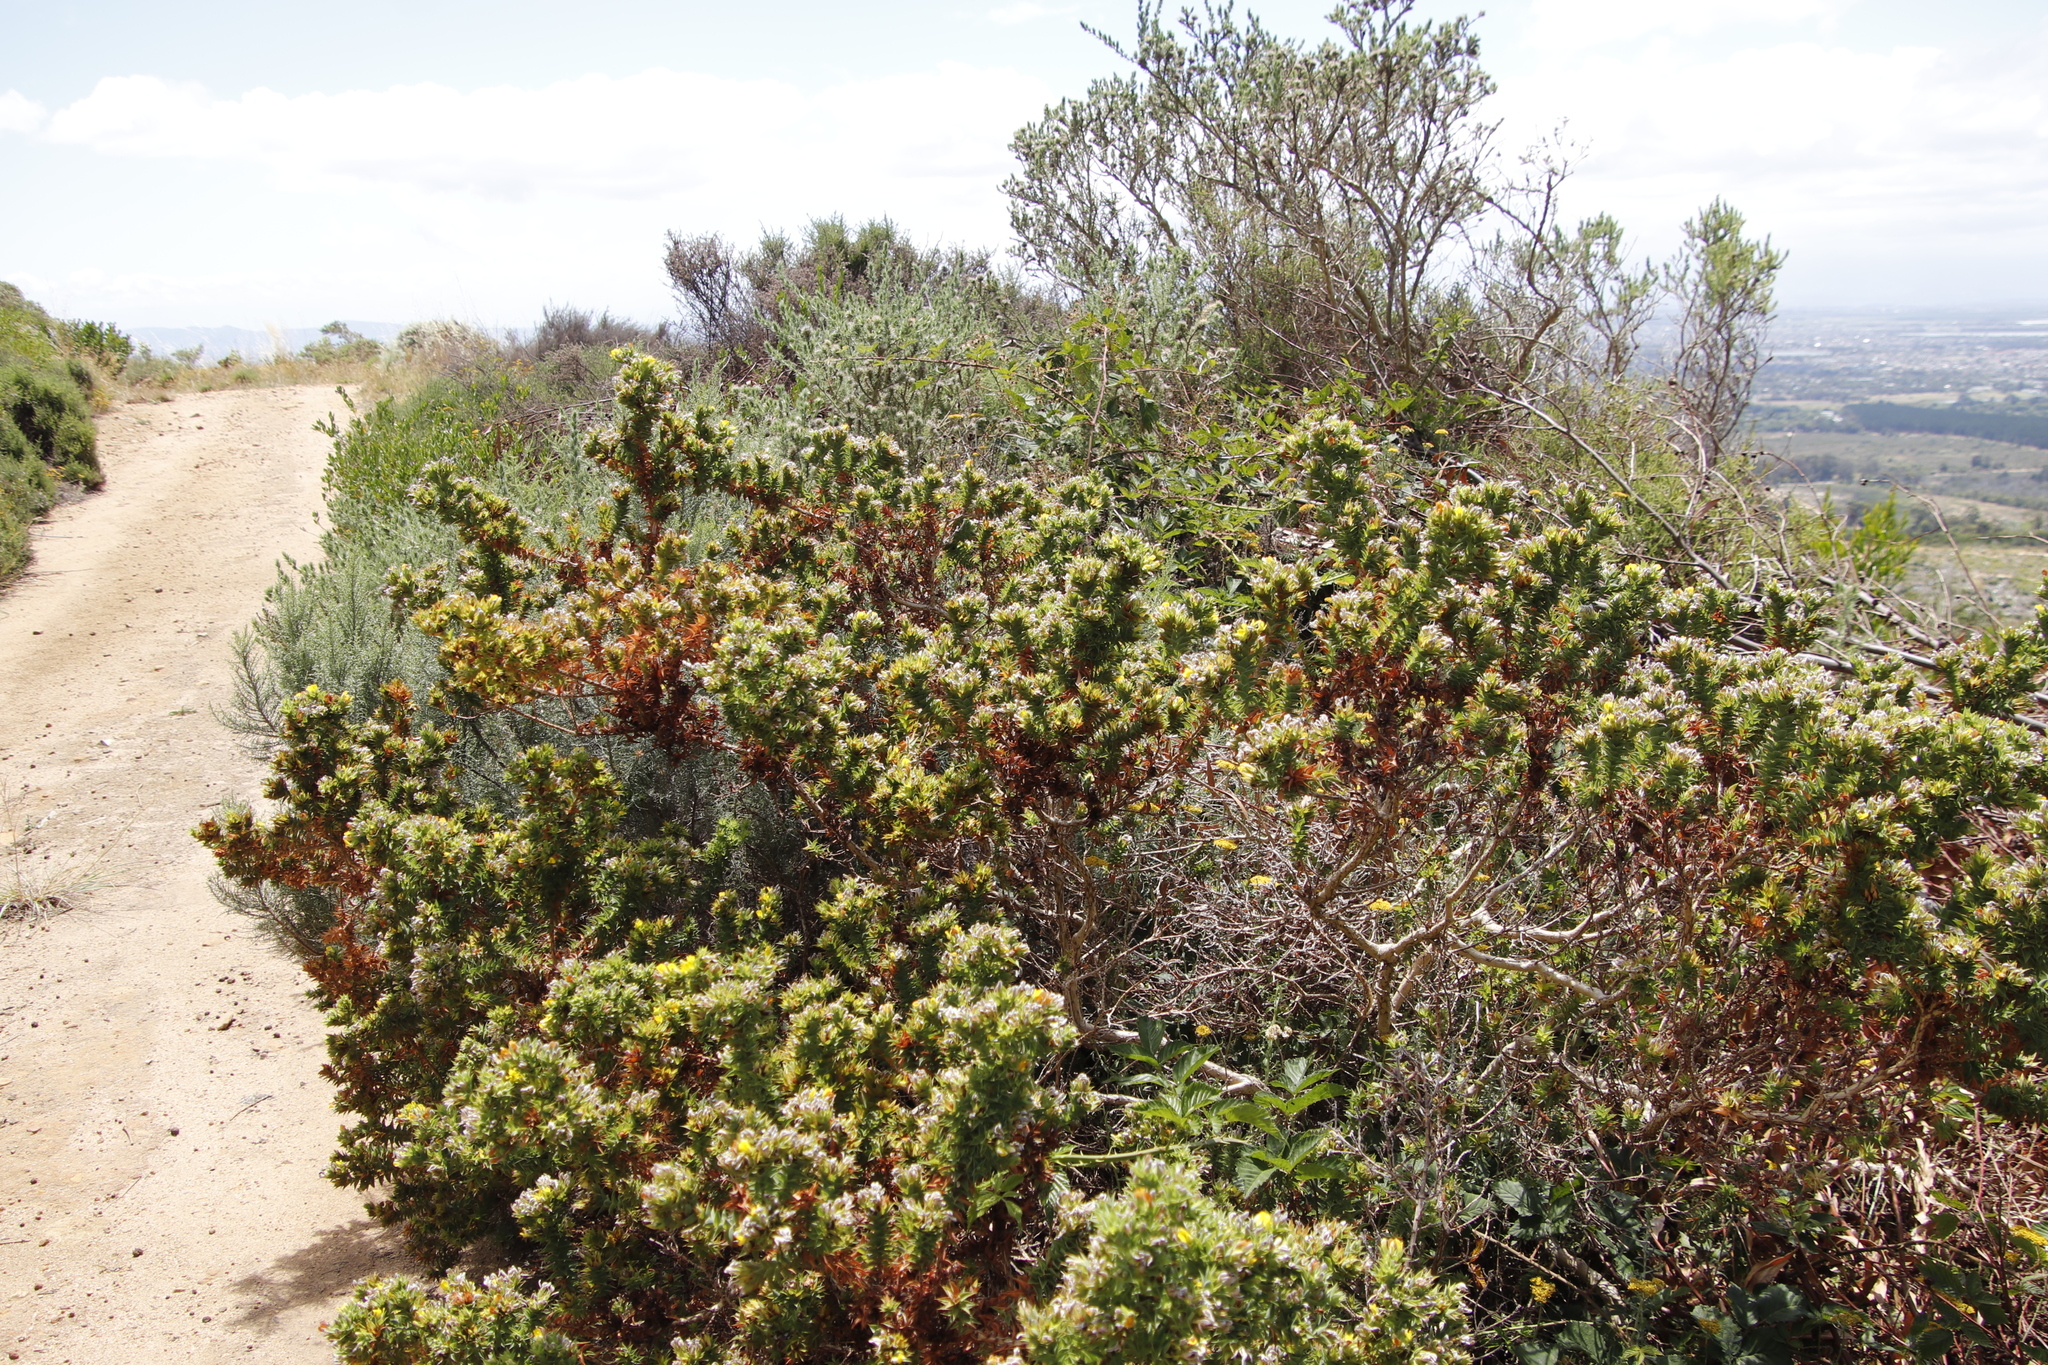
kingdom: Plantae
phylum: Tracheophyta
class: Magnoliopsida
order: Fabales
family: Fabaceae
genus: Aspalathus
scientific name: Aspalathus cordata
